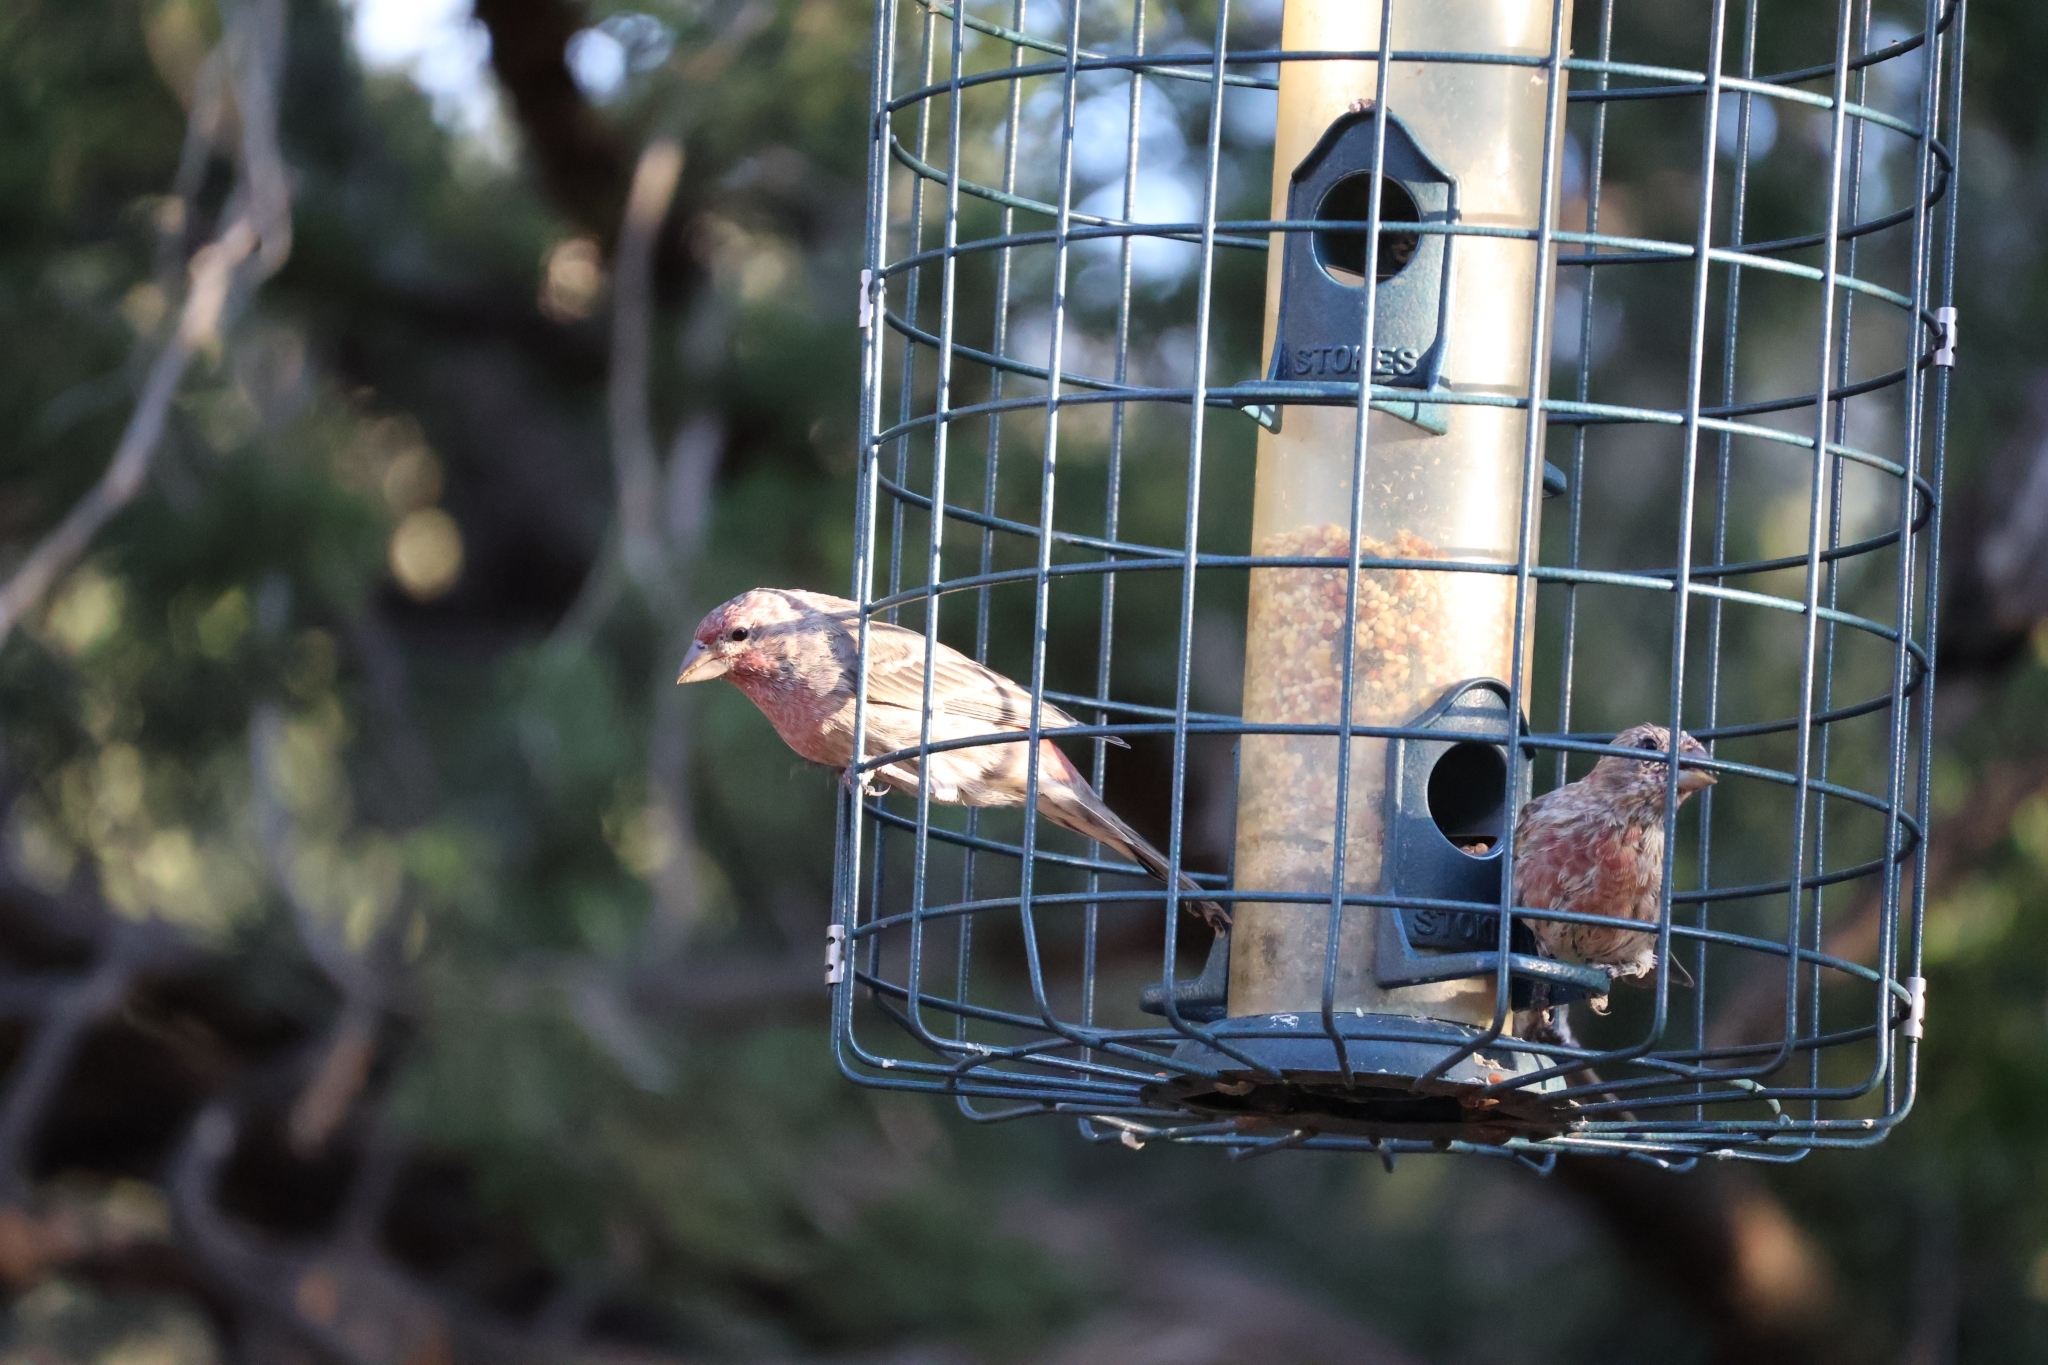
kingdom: Animalia
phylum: Chordata
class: Aves
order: Passeriformes
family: Fringillidae
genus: Haemorhous
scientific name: Haemorhous mexicanus
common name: House finch
